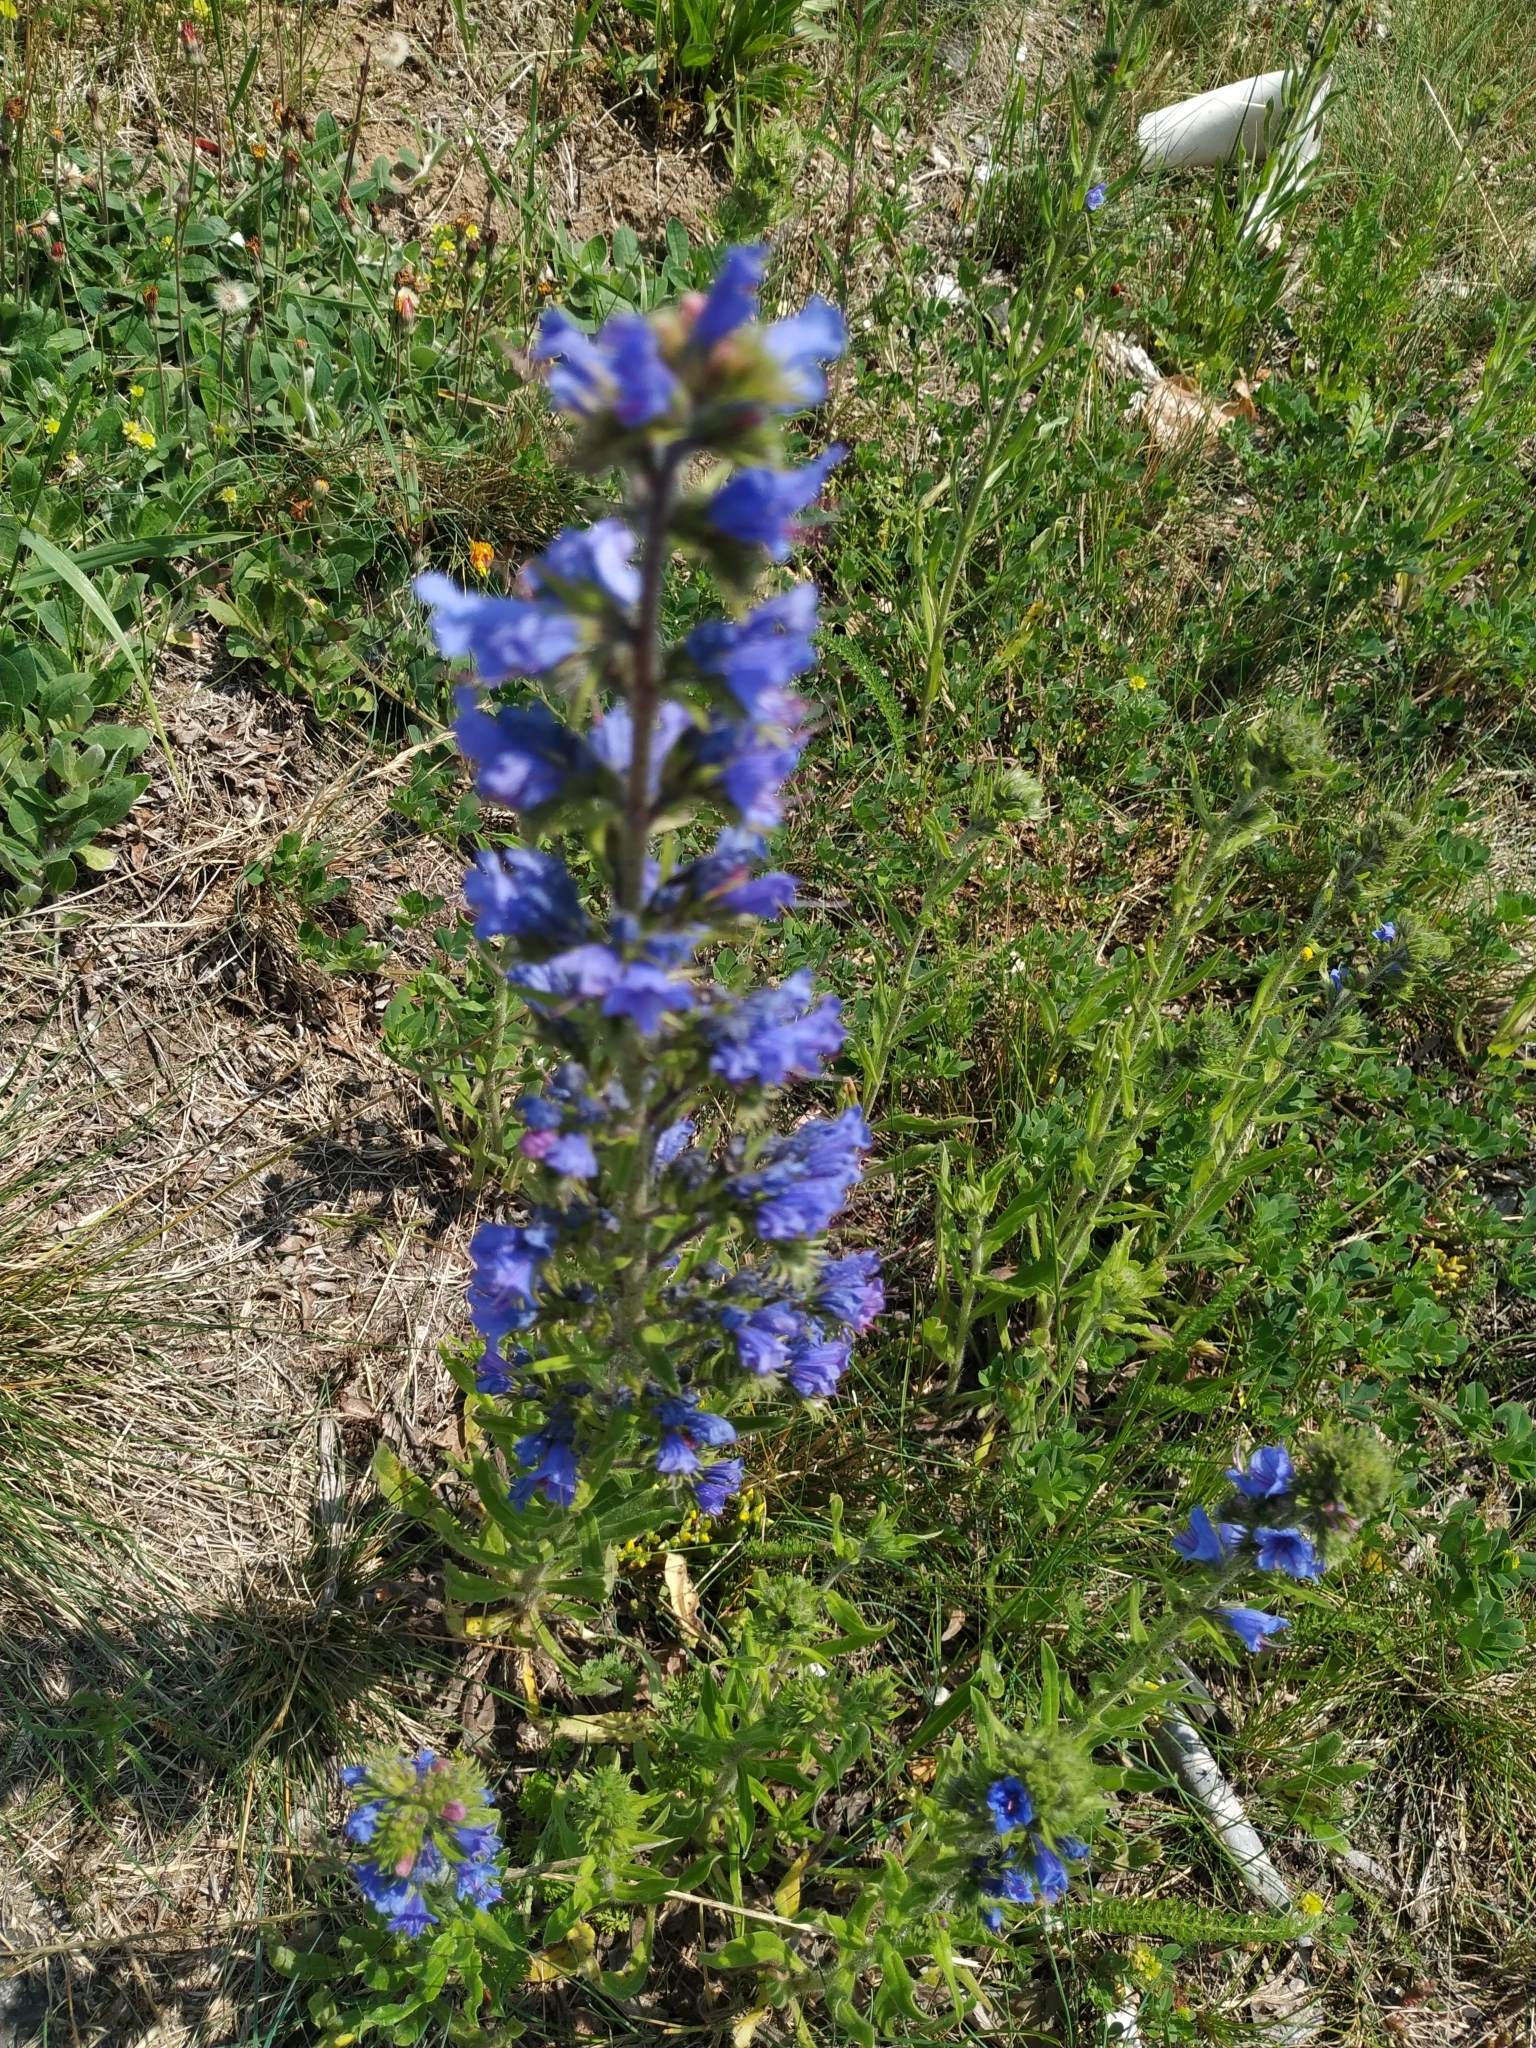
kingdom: Plantae
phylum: Tracheophyta
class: Magnoliopsida
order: Boraginales
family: Boraginaceae
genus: Echium
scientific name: Echium vulgare
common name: Common viper's bugloss
